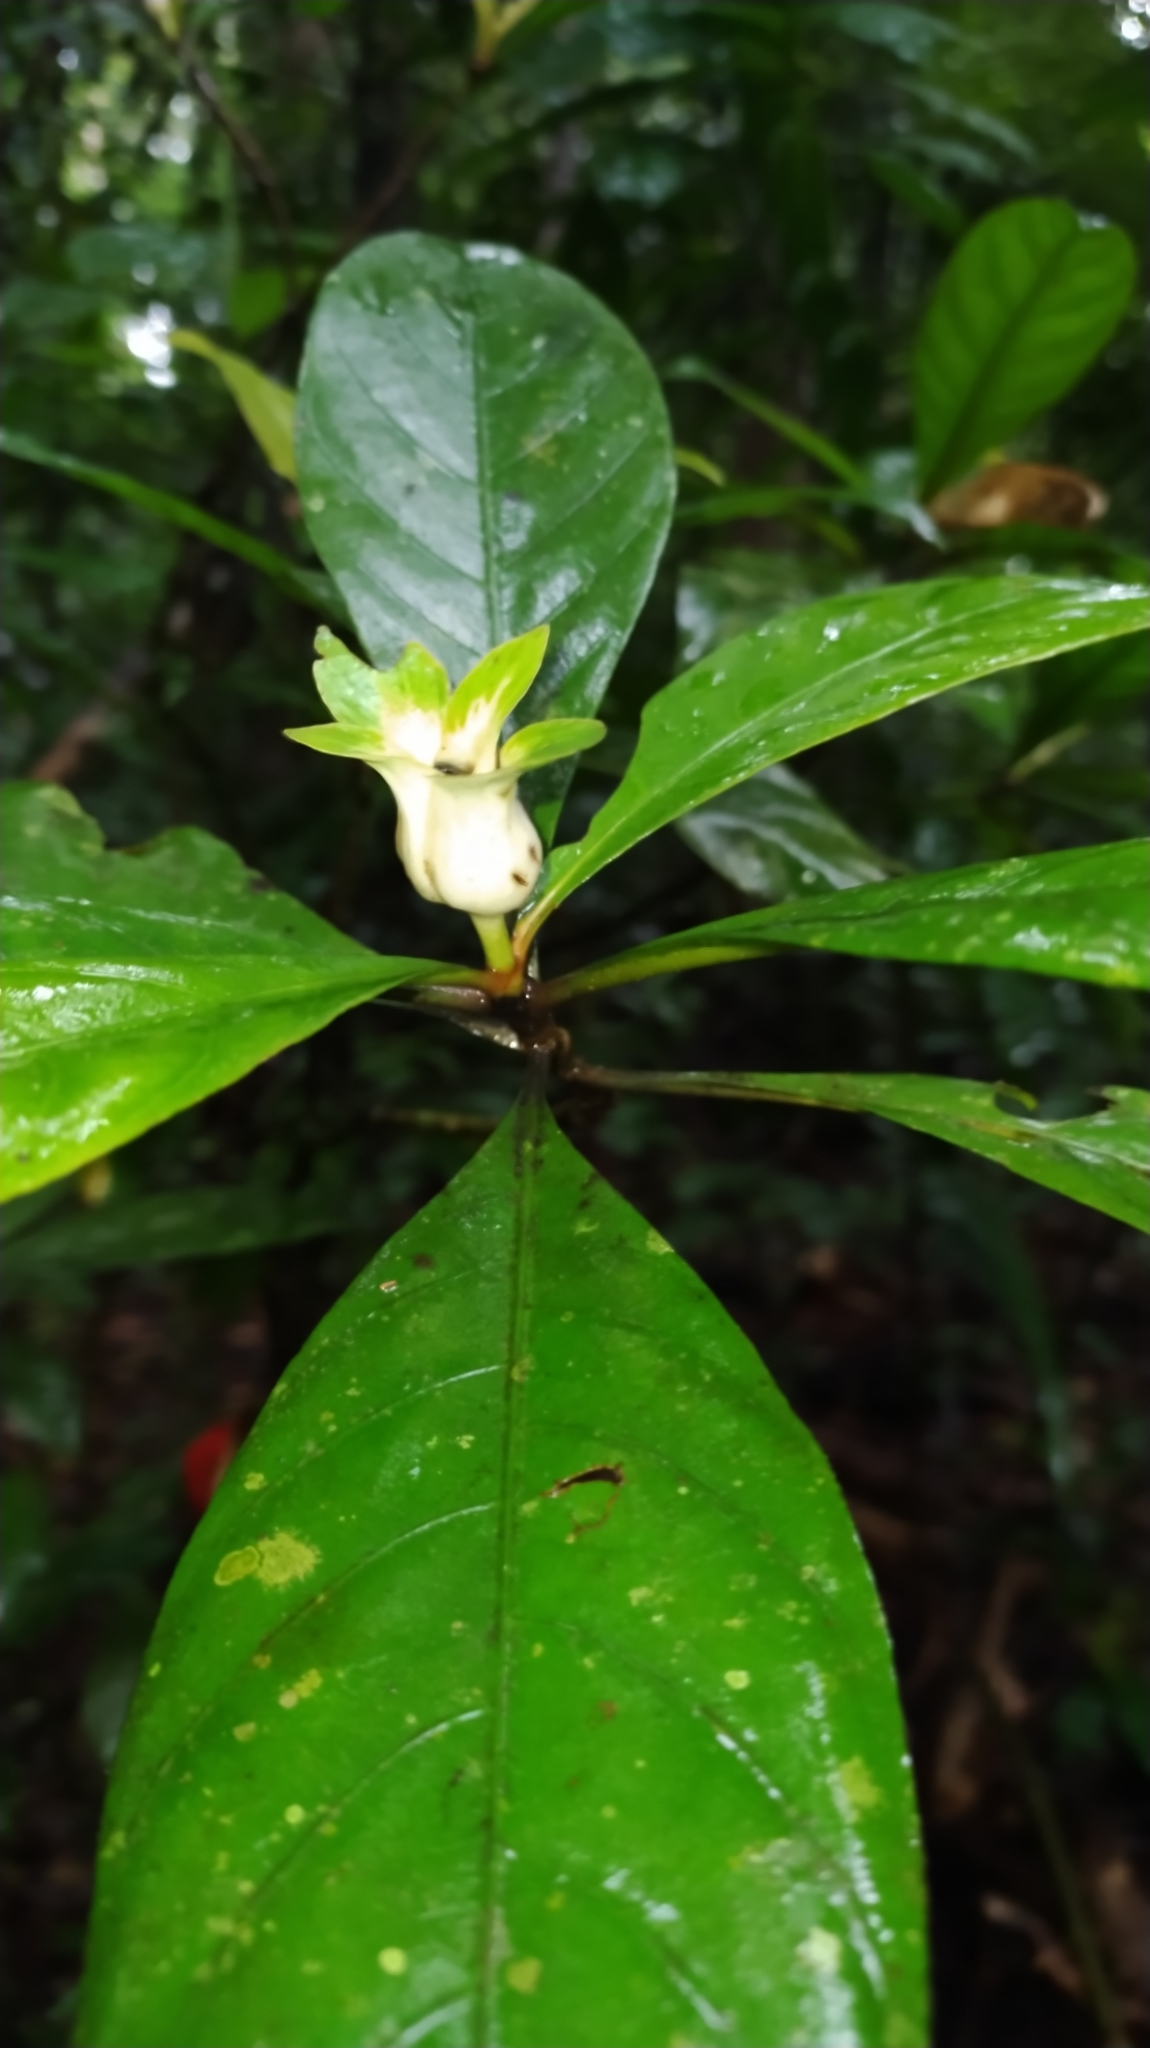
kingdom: Plantae
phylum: Tracheophyta
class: Magnoliopsida
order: Gentianales
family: Rubiaceae
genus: Carapichea
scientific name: Carapichea guianensis
